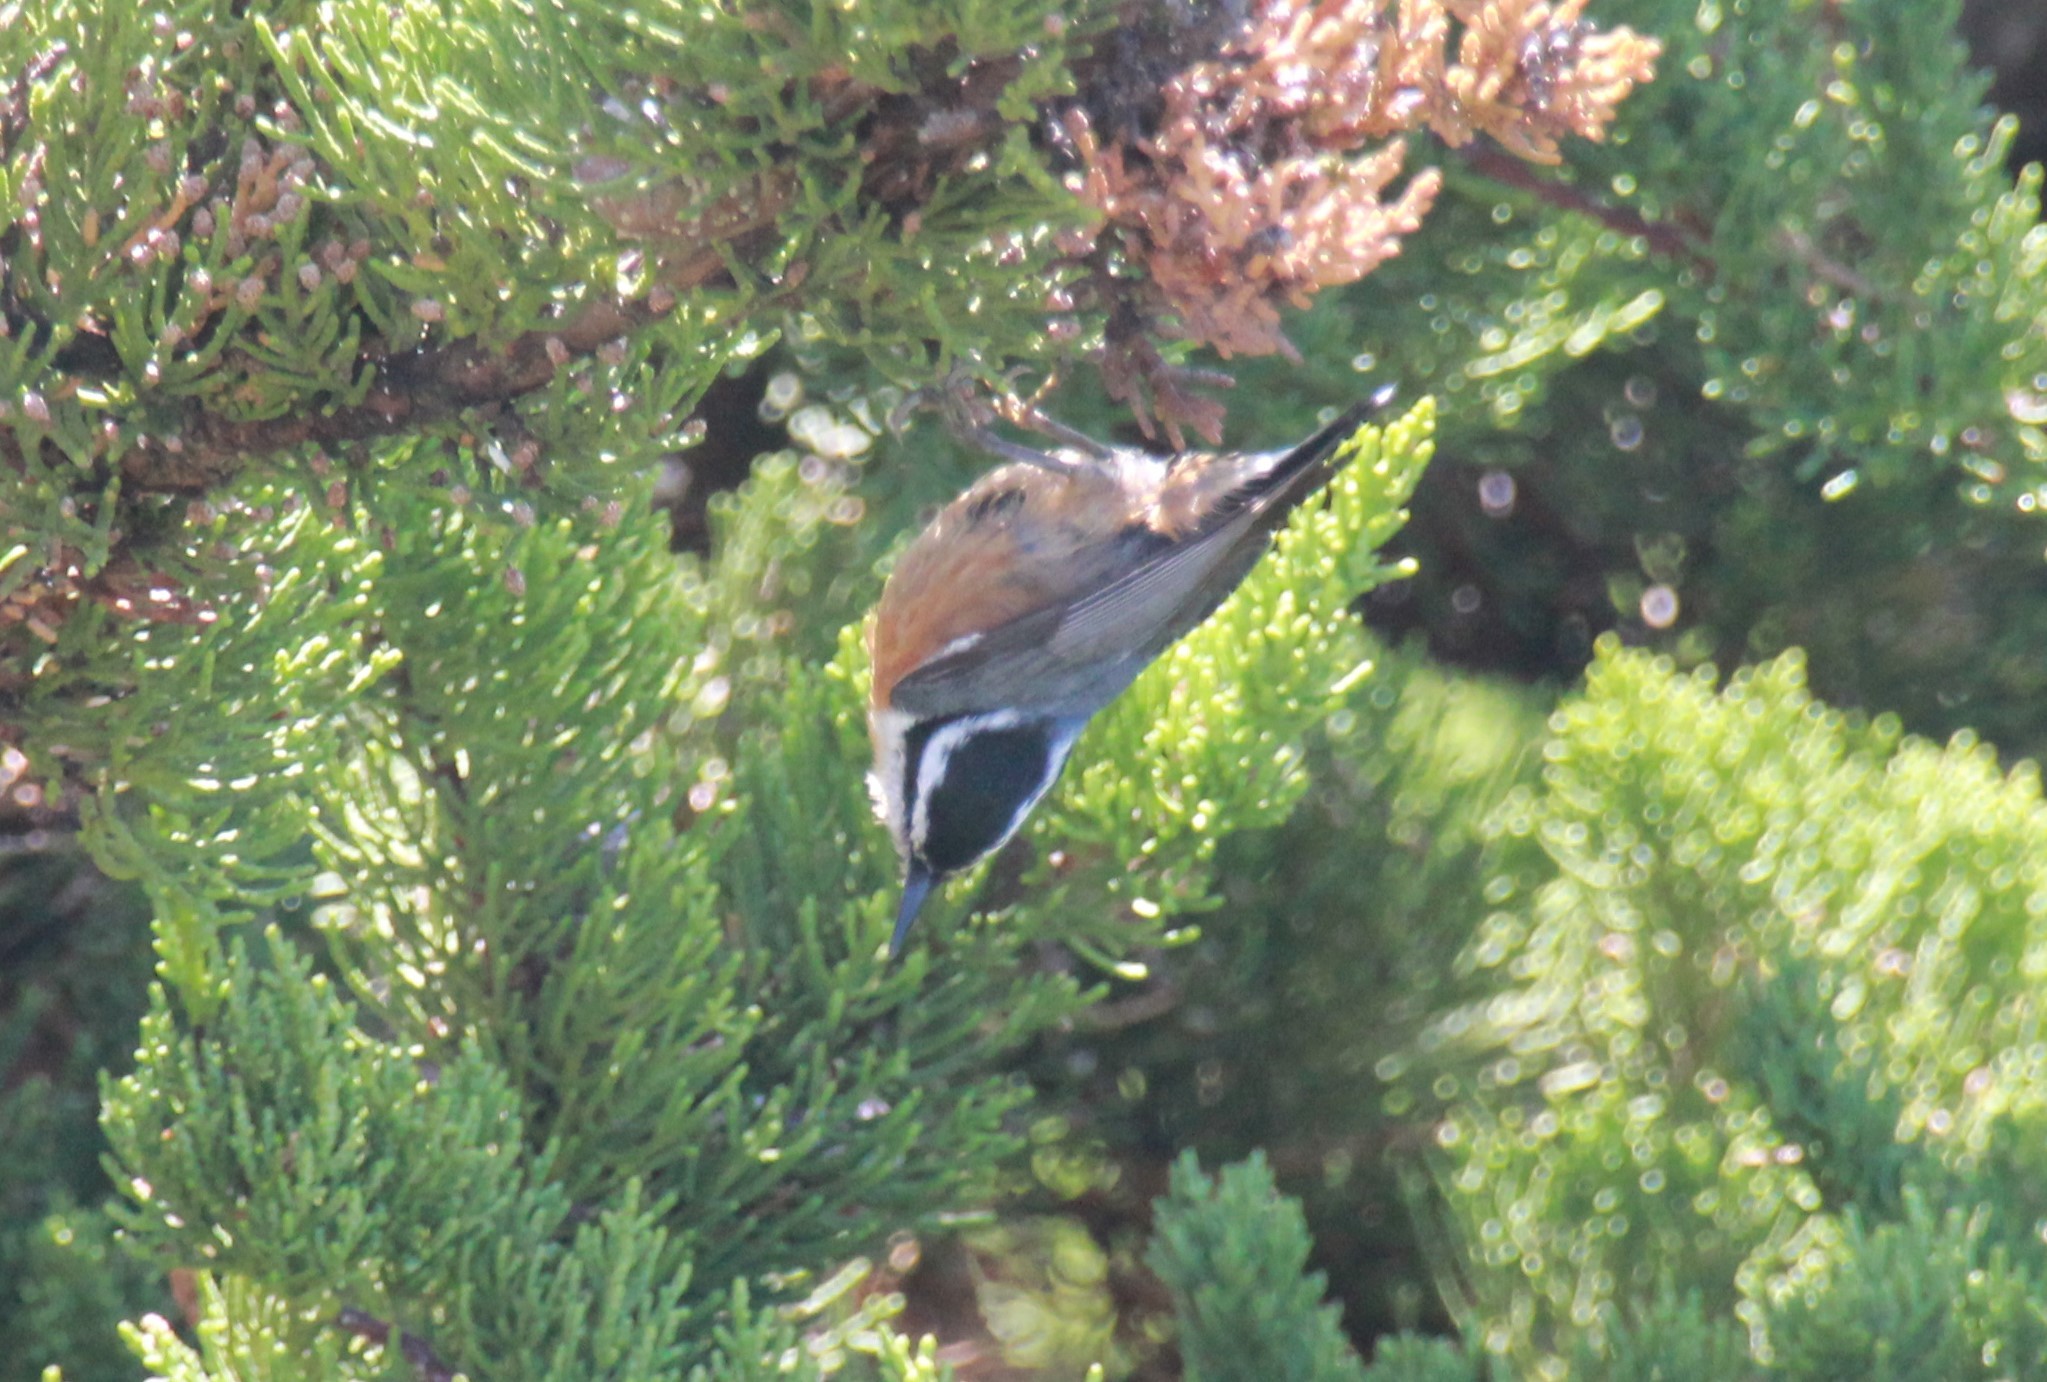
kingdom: Animalia
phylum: Chordata
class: Aves
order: Passeriformes
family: Sittidae
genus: Sitta
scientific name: Sitta canadensis
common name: Red-breasted nuthatch
